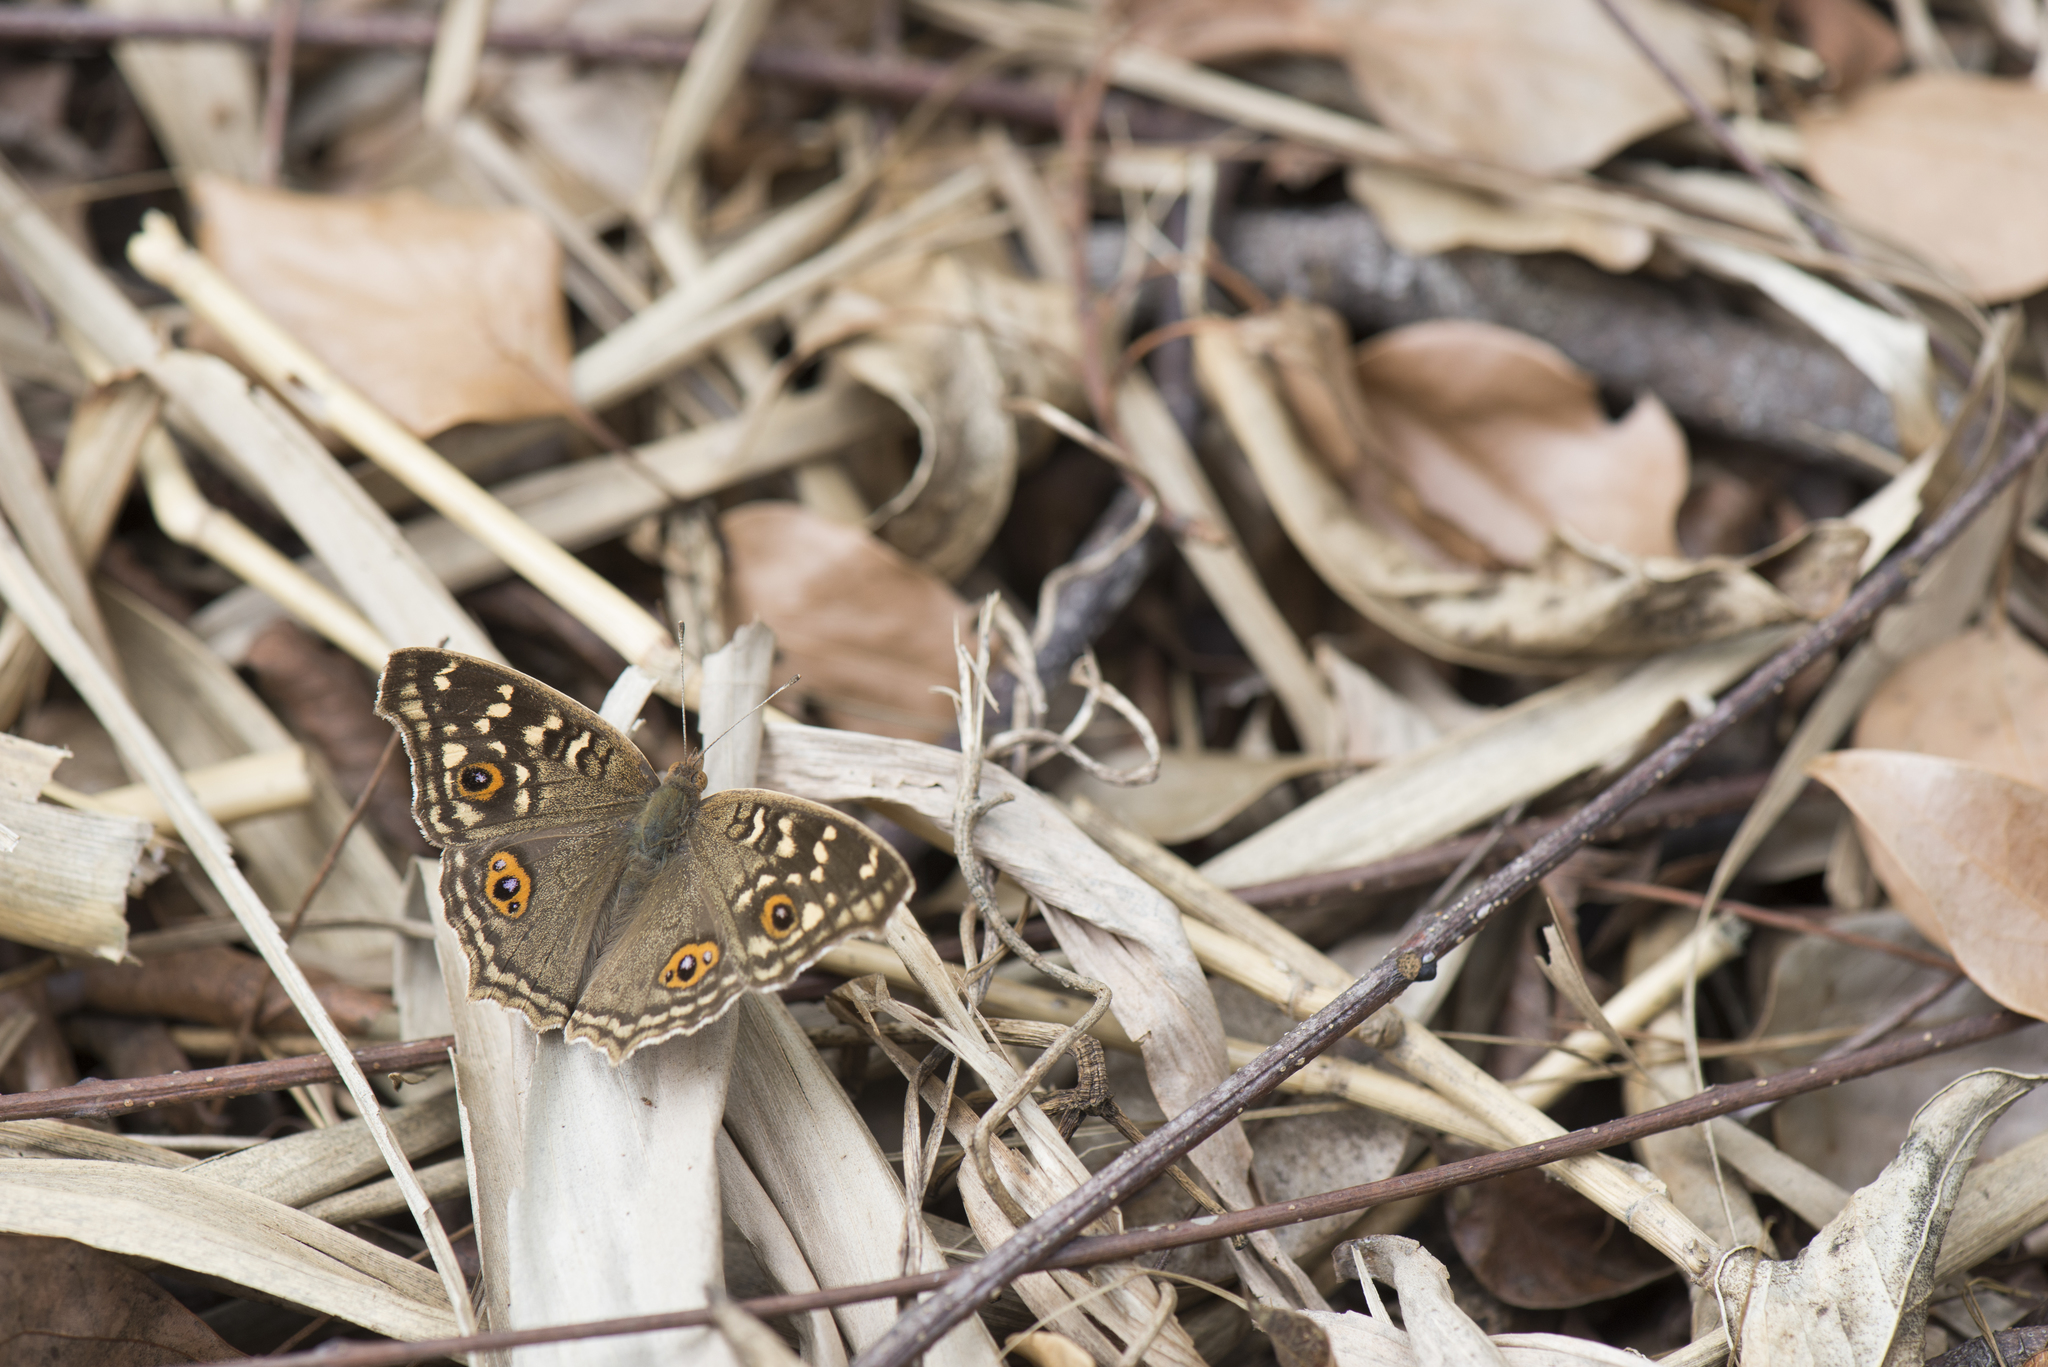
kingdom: Animalia
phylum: Arthropoda
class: Insecta
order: Lepidoptera
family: Nymphalidae
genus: Junonia
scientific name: Junonia lemonias
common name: Lemon pansy
